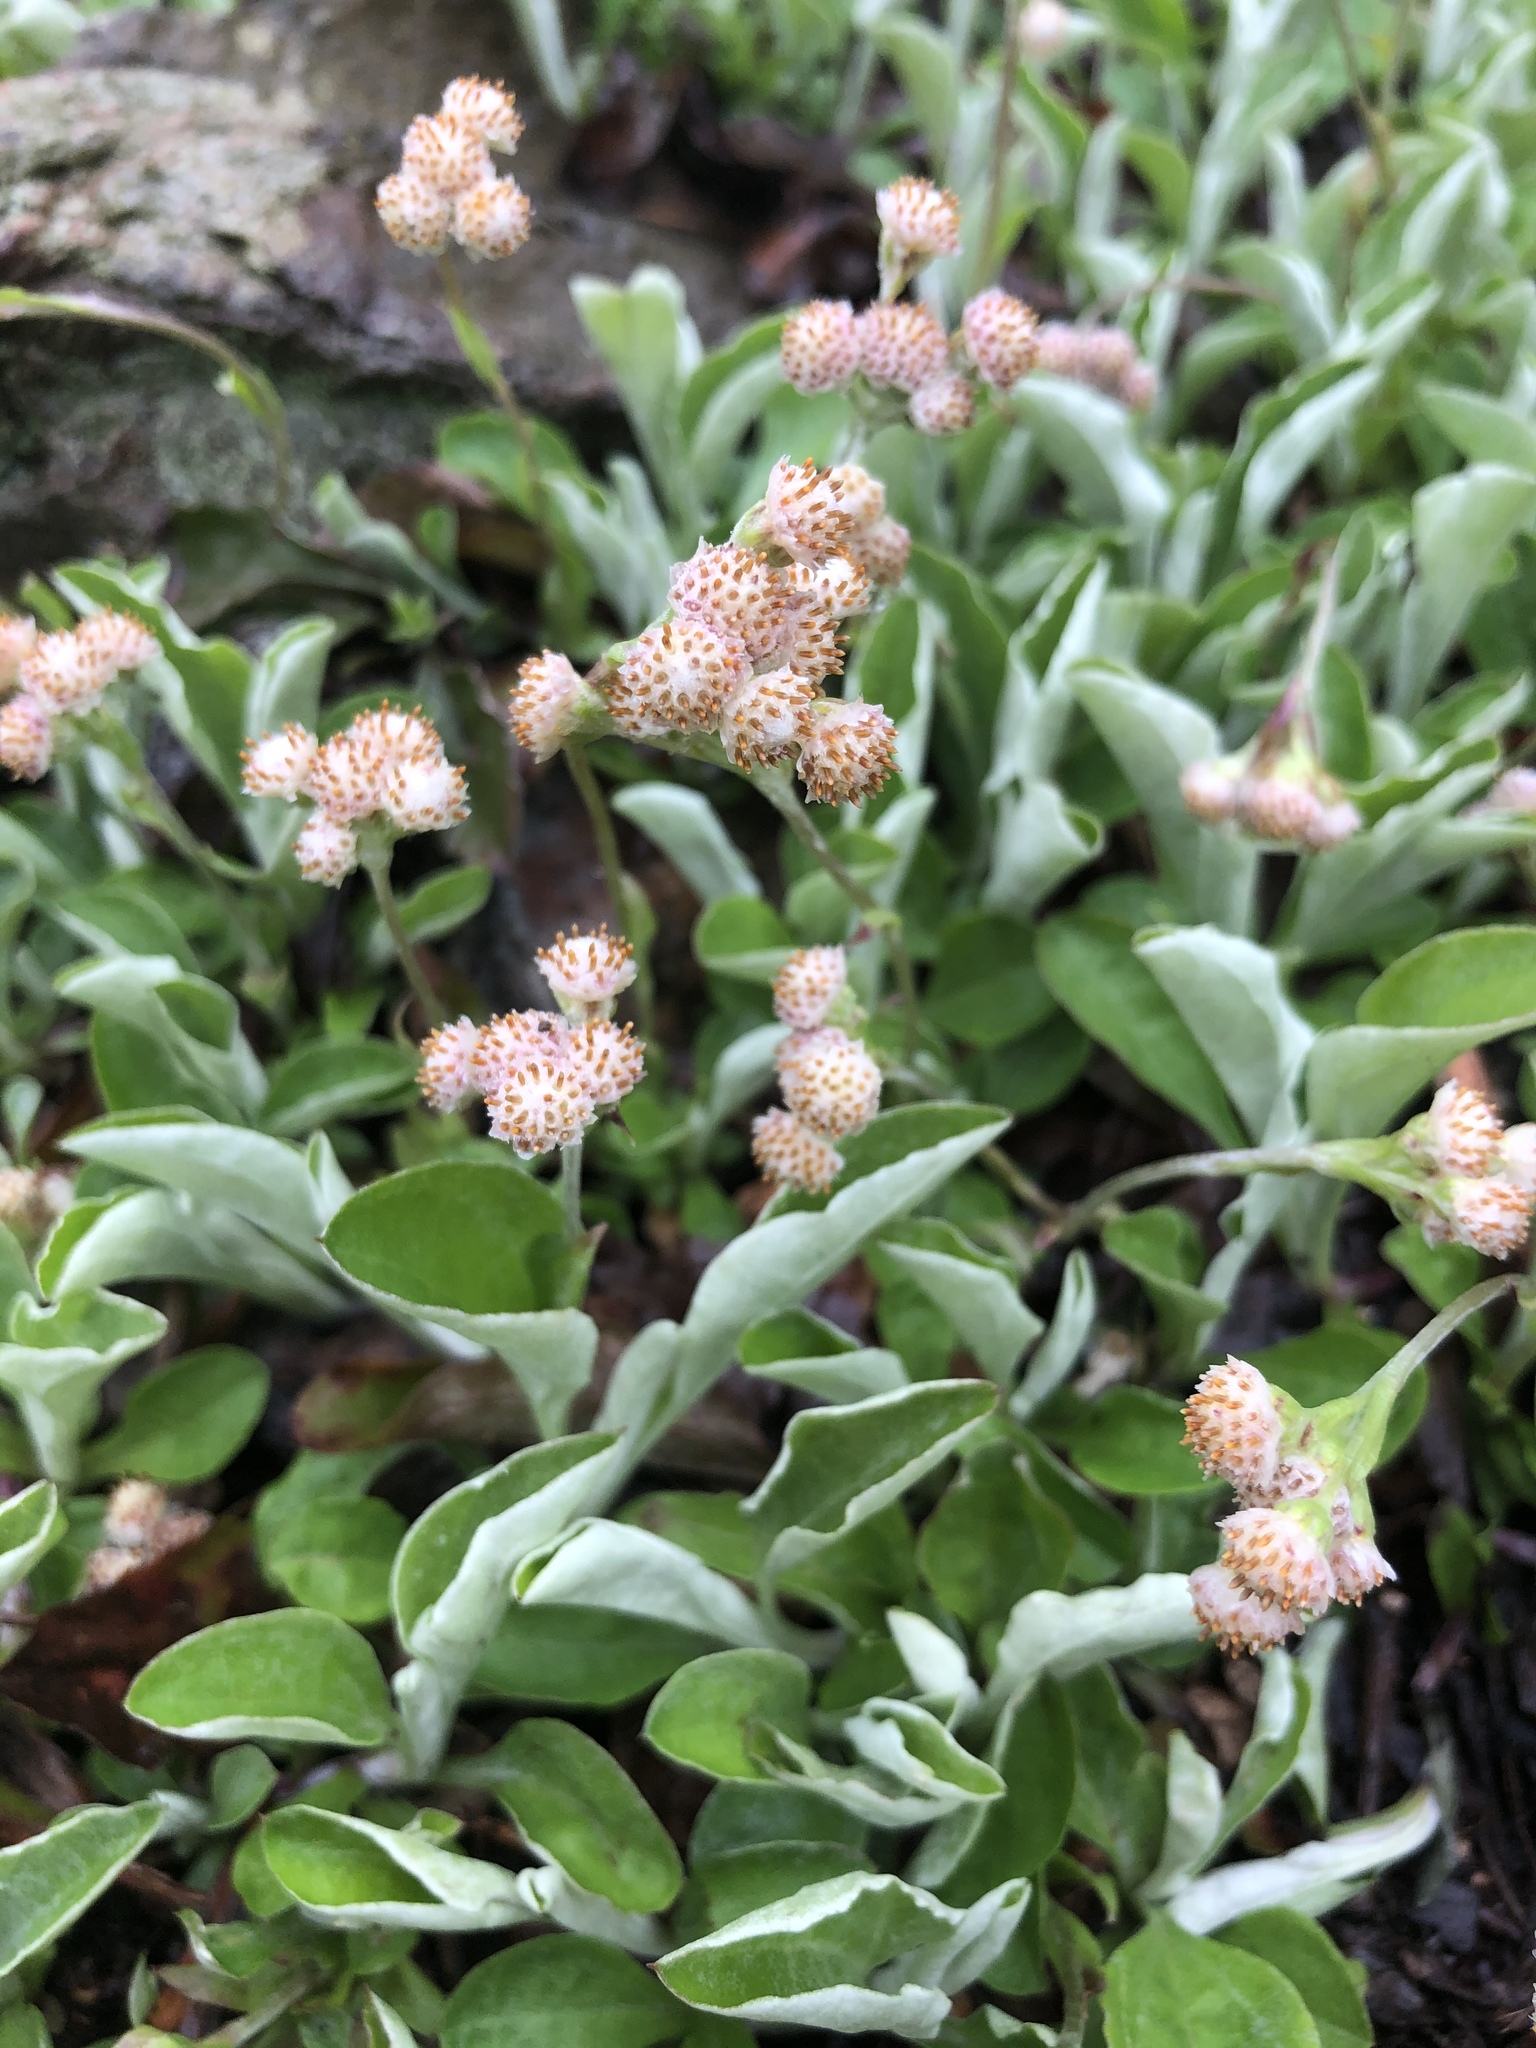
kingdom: Plantae
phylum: Tracheophyta
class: Magnoliopsida
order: Asterales
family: Asteraceae
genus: Antennaria
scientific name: Antennaria parlinii
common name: Parlin's pussytoes
